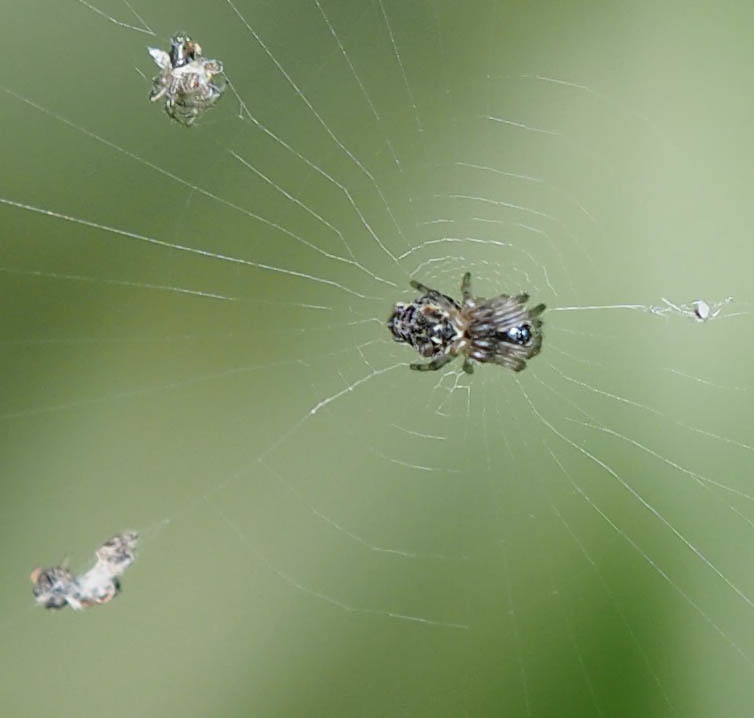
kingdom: Animalia
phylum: Arthropoda
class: Arachnida
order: Araneae
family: Araneidae
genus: Cyclosa
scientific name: Cyclosa walckenaeri
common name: Orb weavers
